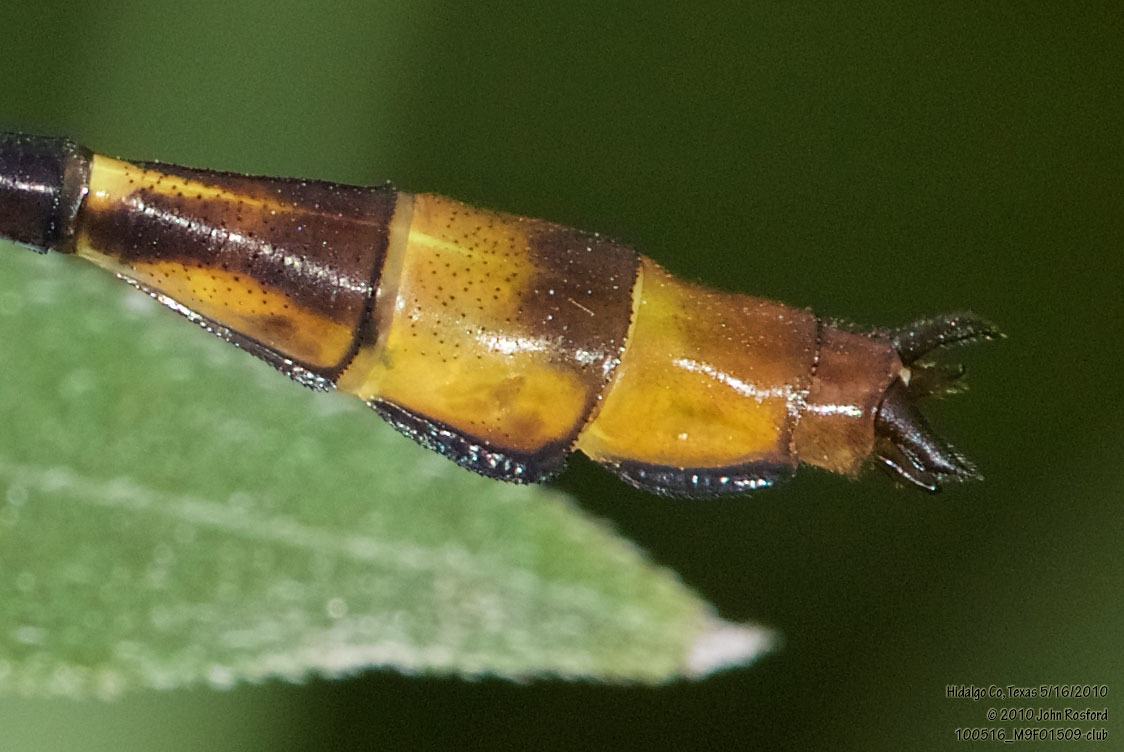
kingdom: Animalia
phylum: Arthropoda
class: Insecta
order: Odonata
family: Gomphidae
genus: Stylurus
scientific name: Stylurus plagiatus
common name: Russet-tipped clubtail
